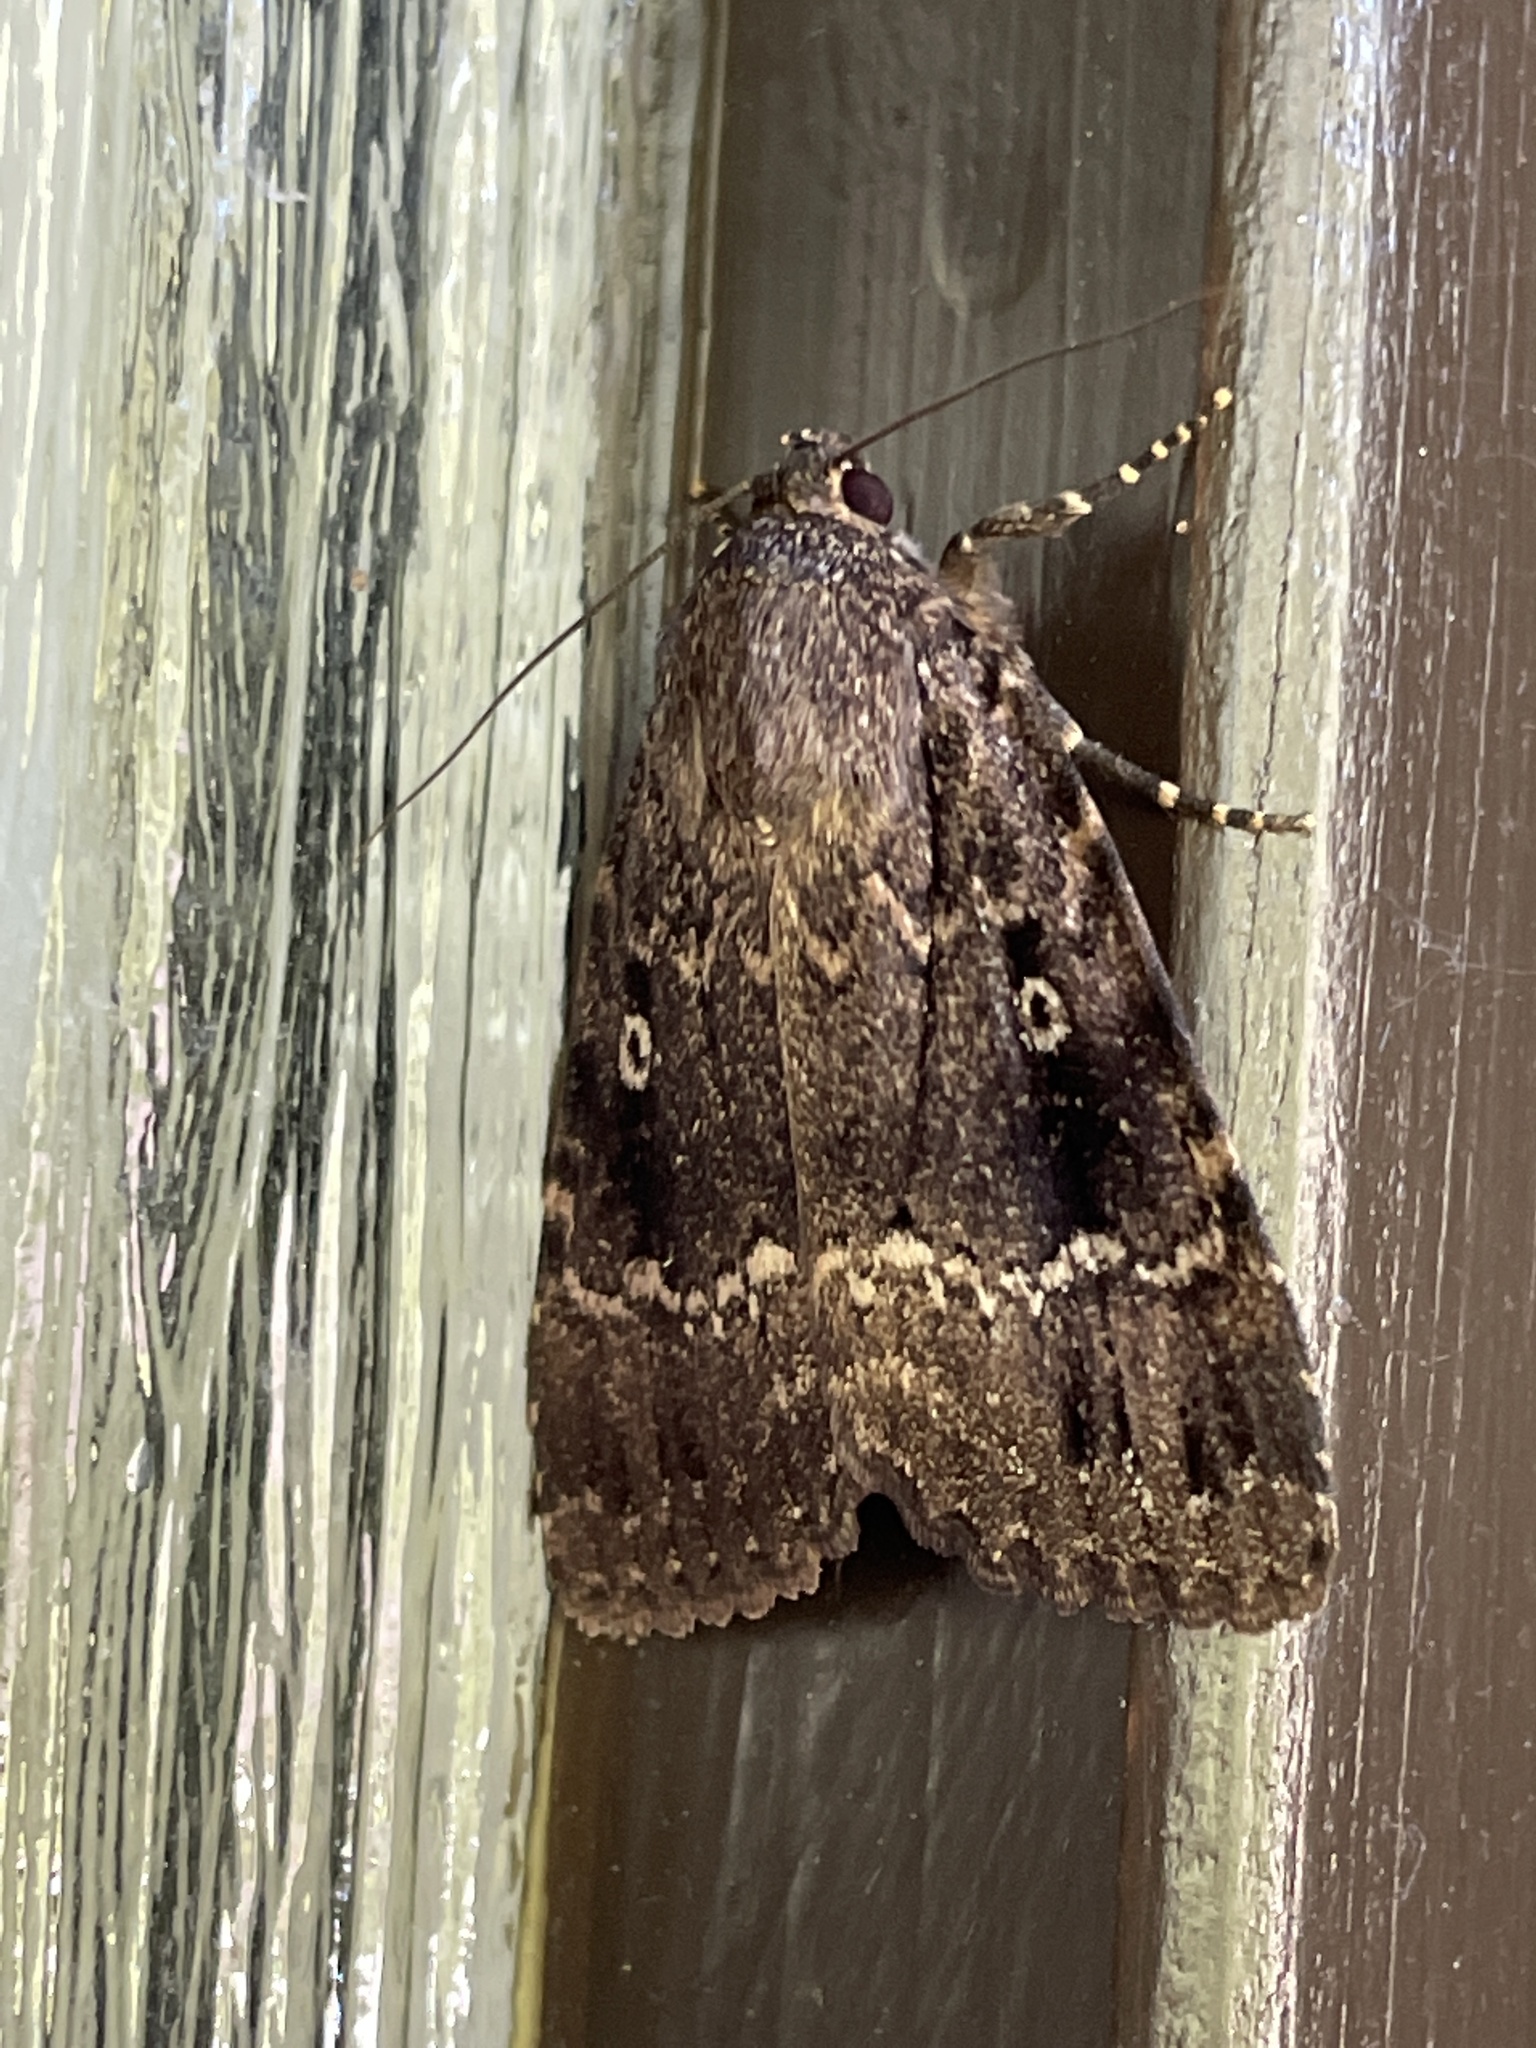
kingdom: Animalia
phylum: Arthropoda
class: Insecta
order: Lepidoptera
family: Noctuidae
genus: Amphipyra
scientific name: Amphipyra pyramidea
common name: Copper underwing
